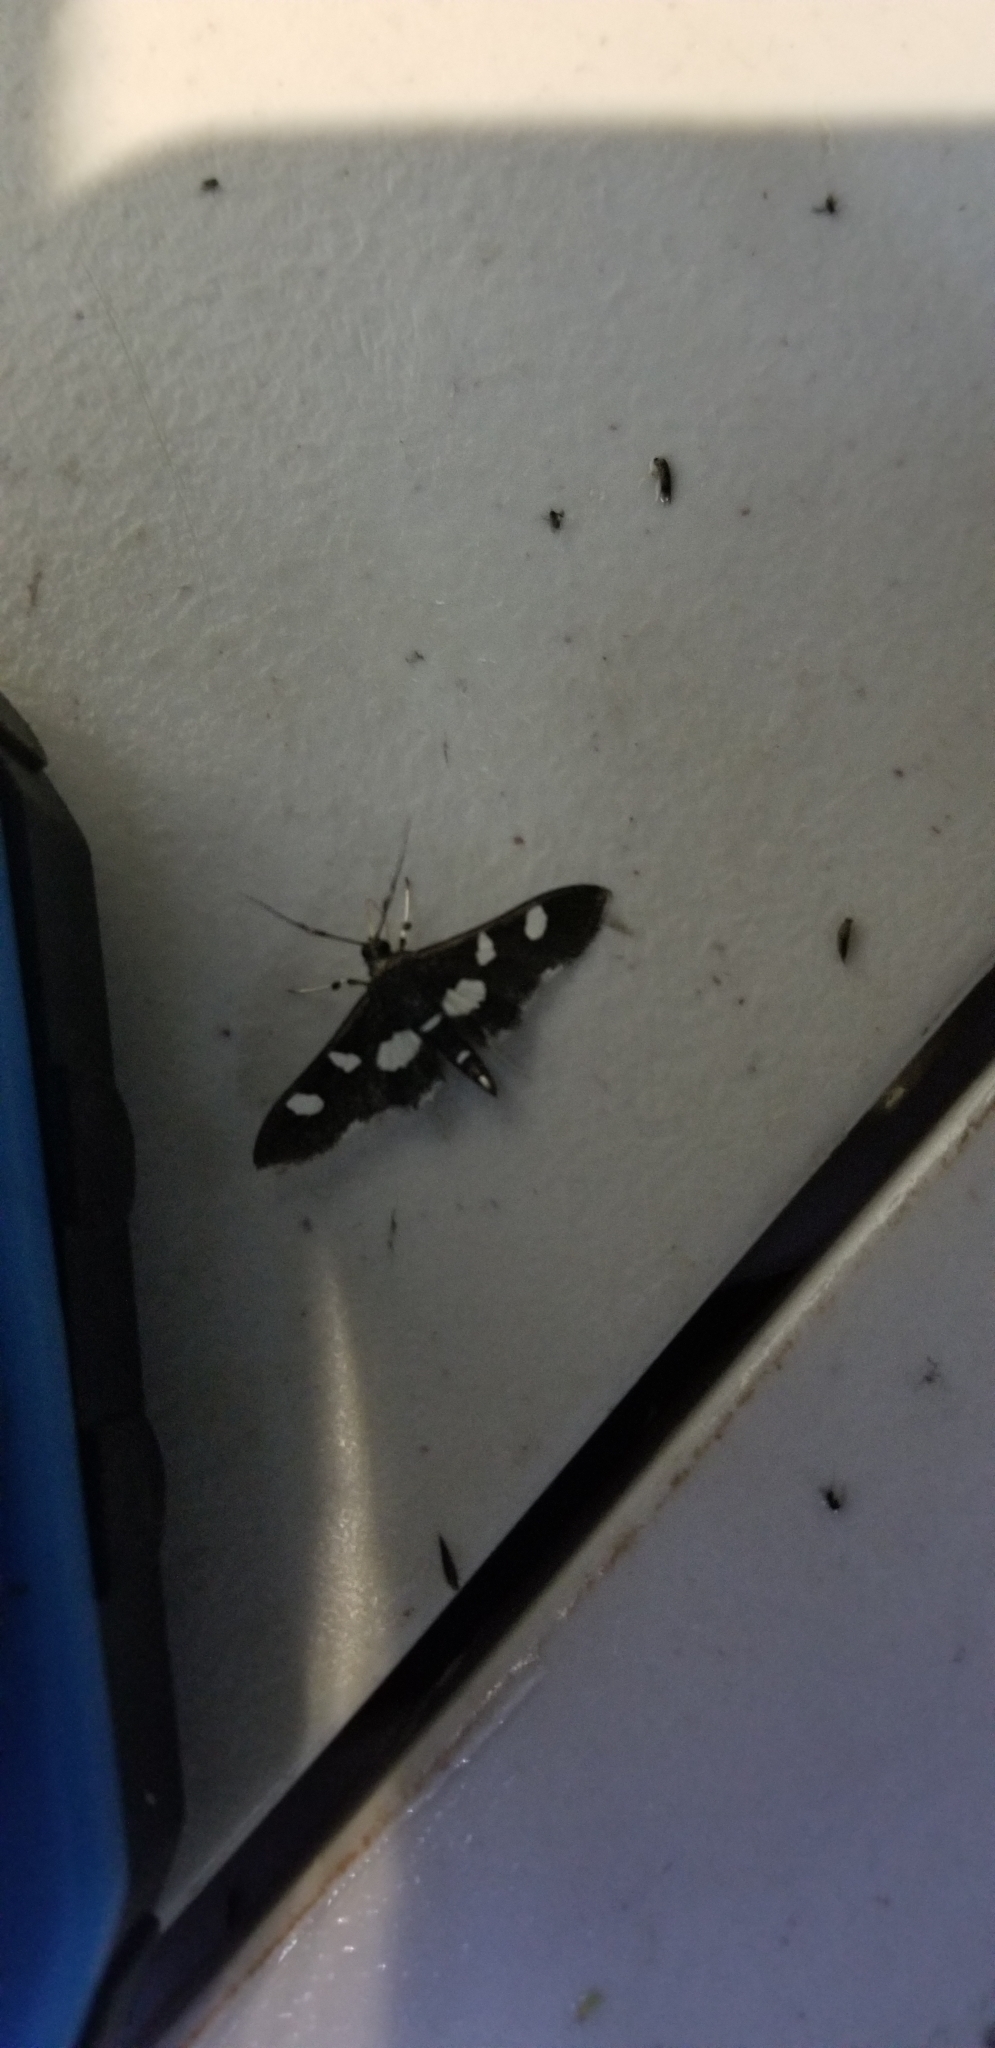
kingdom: Animalia
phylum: Arthropoda
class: Insecta
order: Lepidoptera
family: Crambidae
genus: Desmia
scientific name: Desmia
